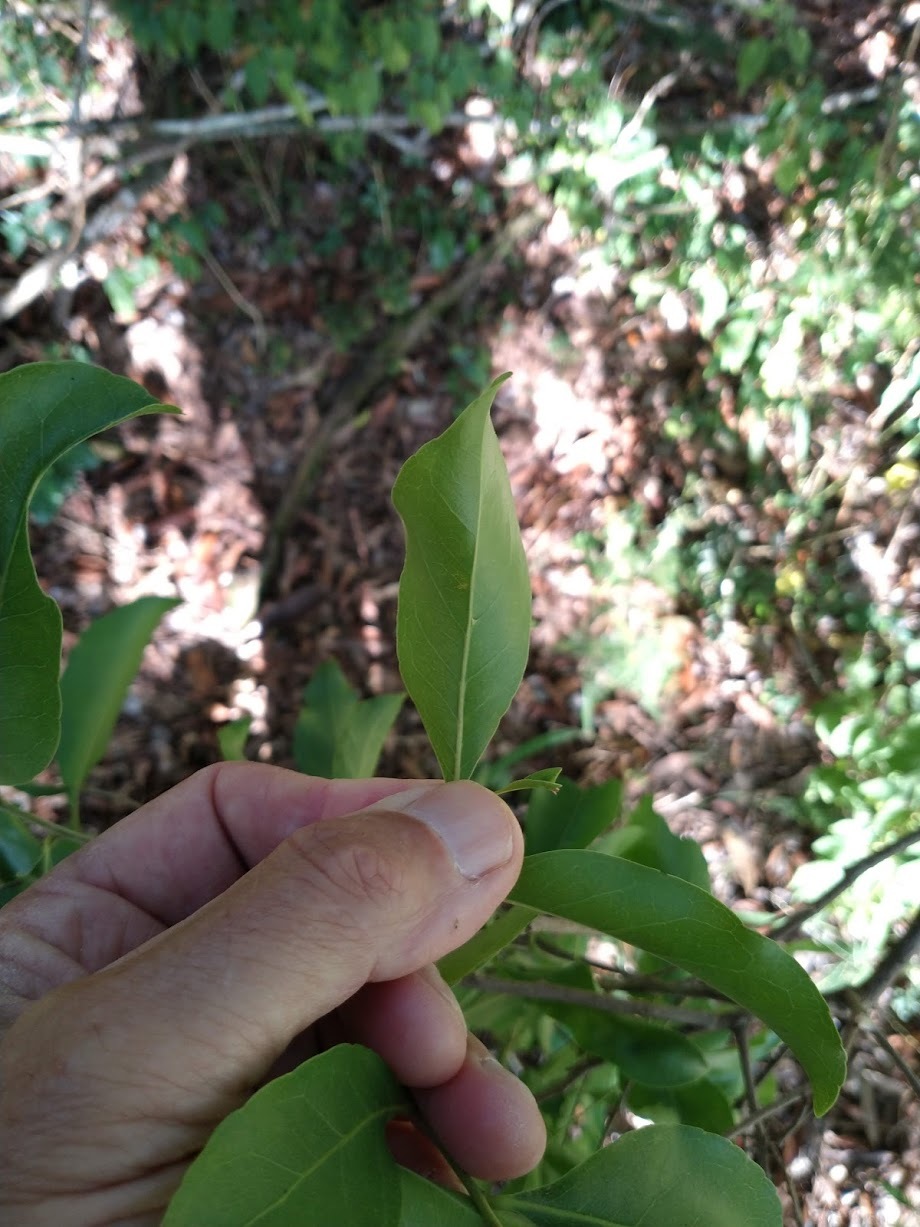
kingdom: Plantae
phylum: Tracheophyta
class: Magnoliopsida
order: Oxalidales
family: Elaeocarpaceae
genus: Elaeocarpus
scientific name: Elaeocarpus obovatus
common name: Freckled oliveberry
